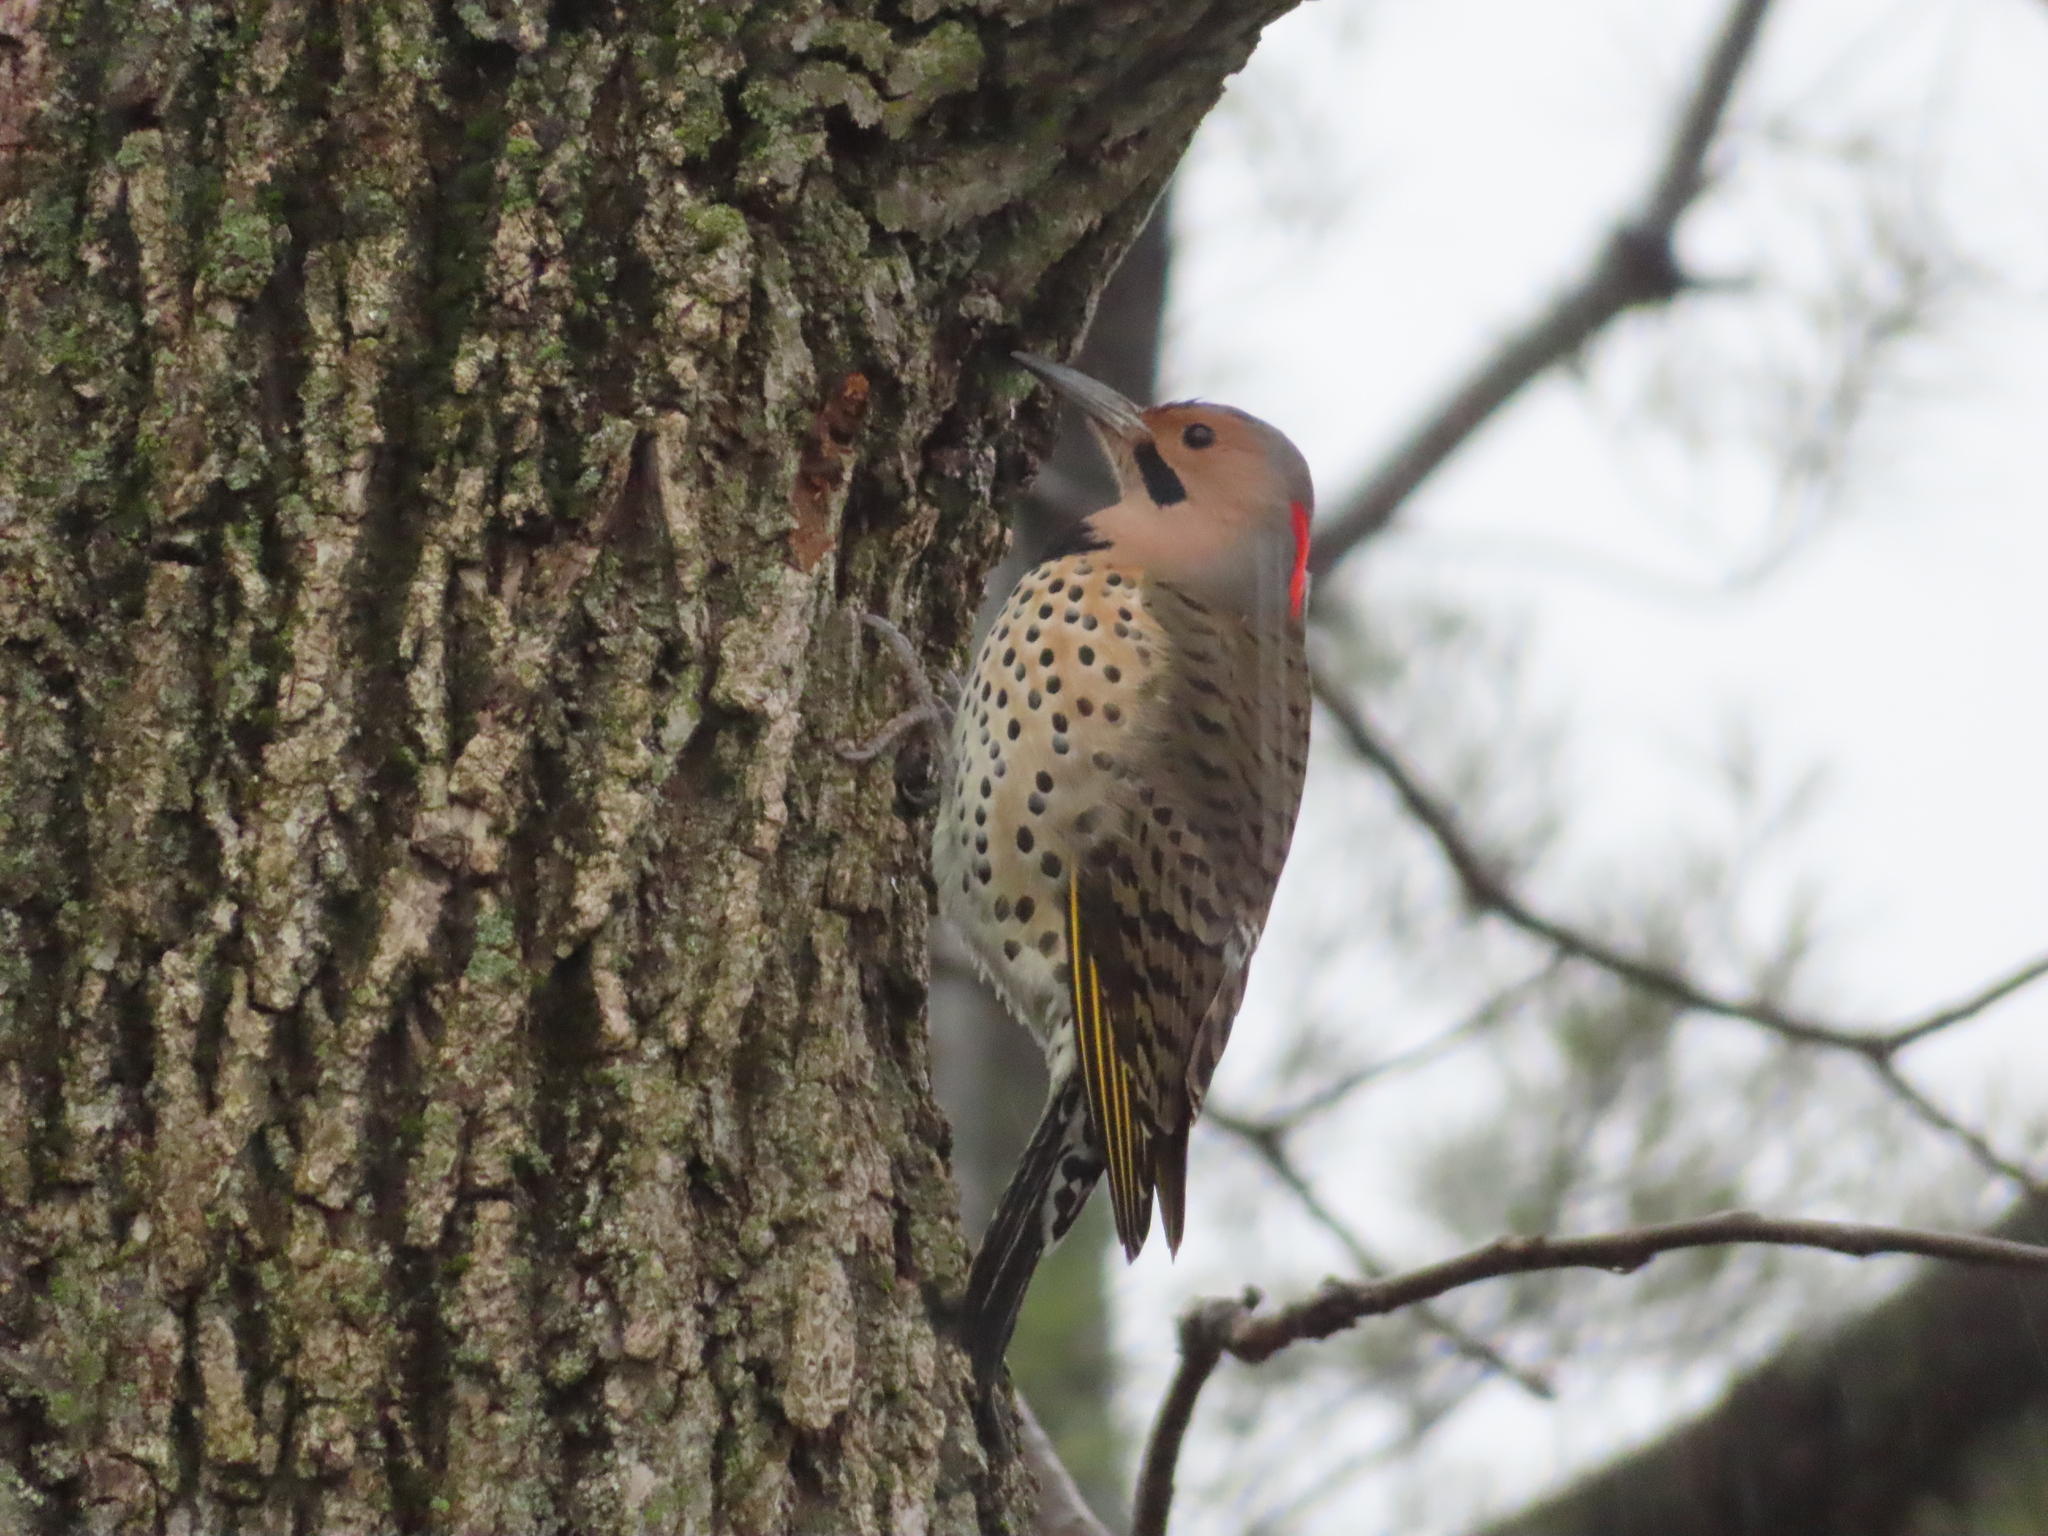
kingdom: Animalia
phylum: Chordata
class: Aves
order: Piciformes
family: Picidae
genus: Colaptes
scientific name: Colaptes auratus
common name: Northern flicker
